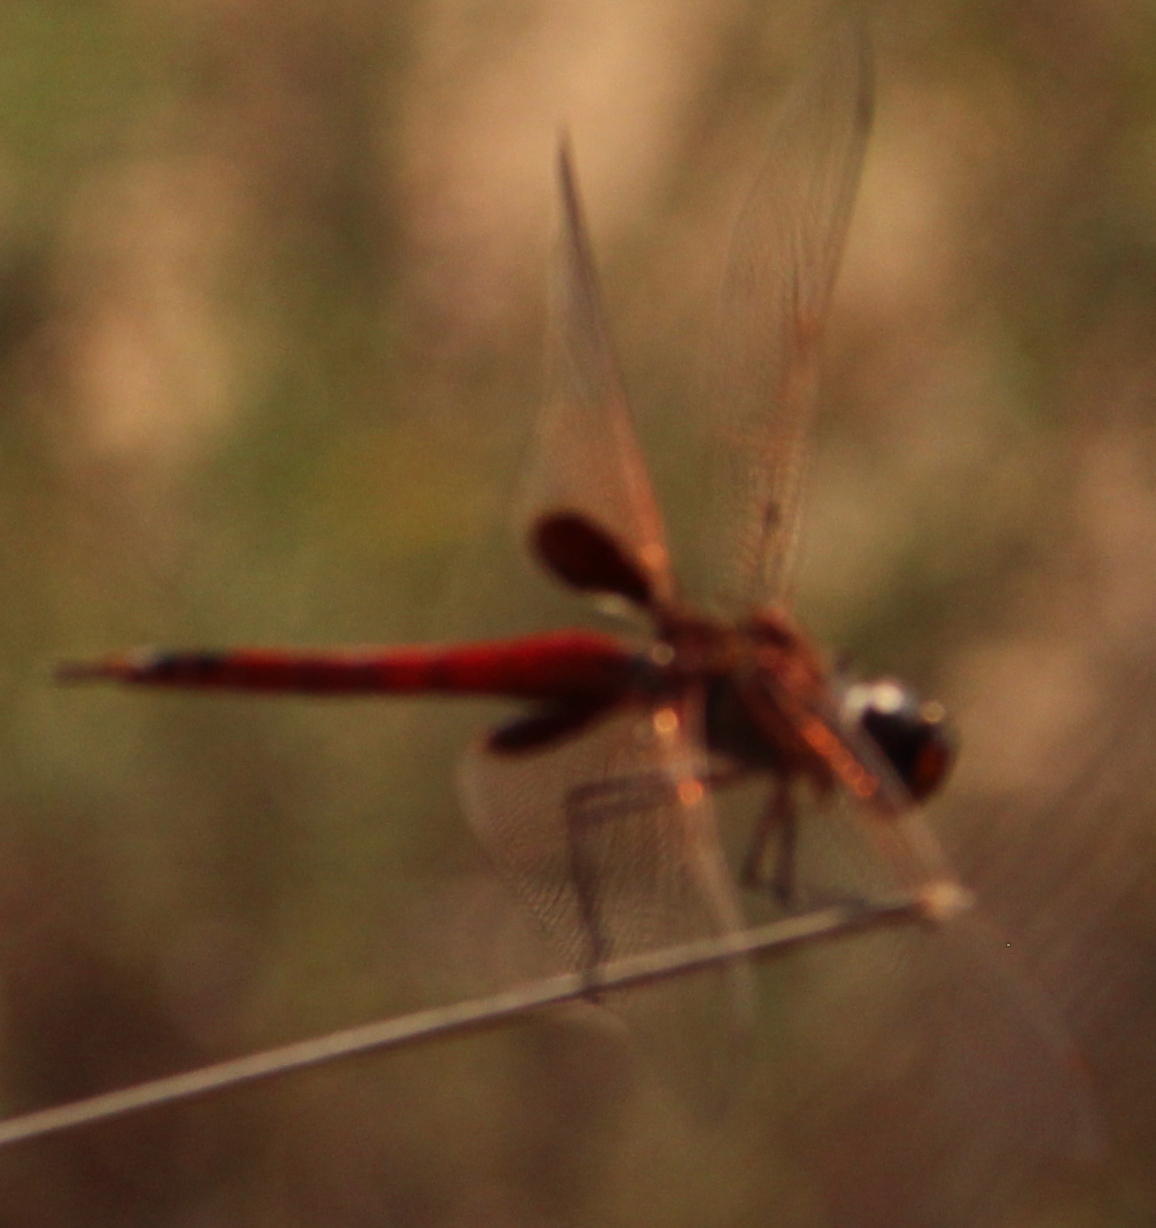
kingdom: Animalia
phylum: Arthropoda
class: Insecta
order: Odonata
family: Libellulidae
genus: Tramea
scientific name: Tramea limbata
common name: Ferruginous glider
